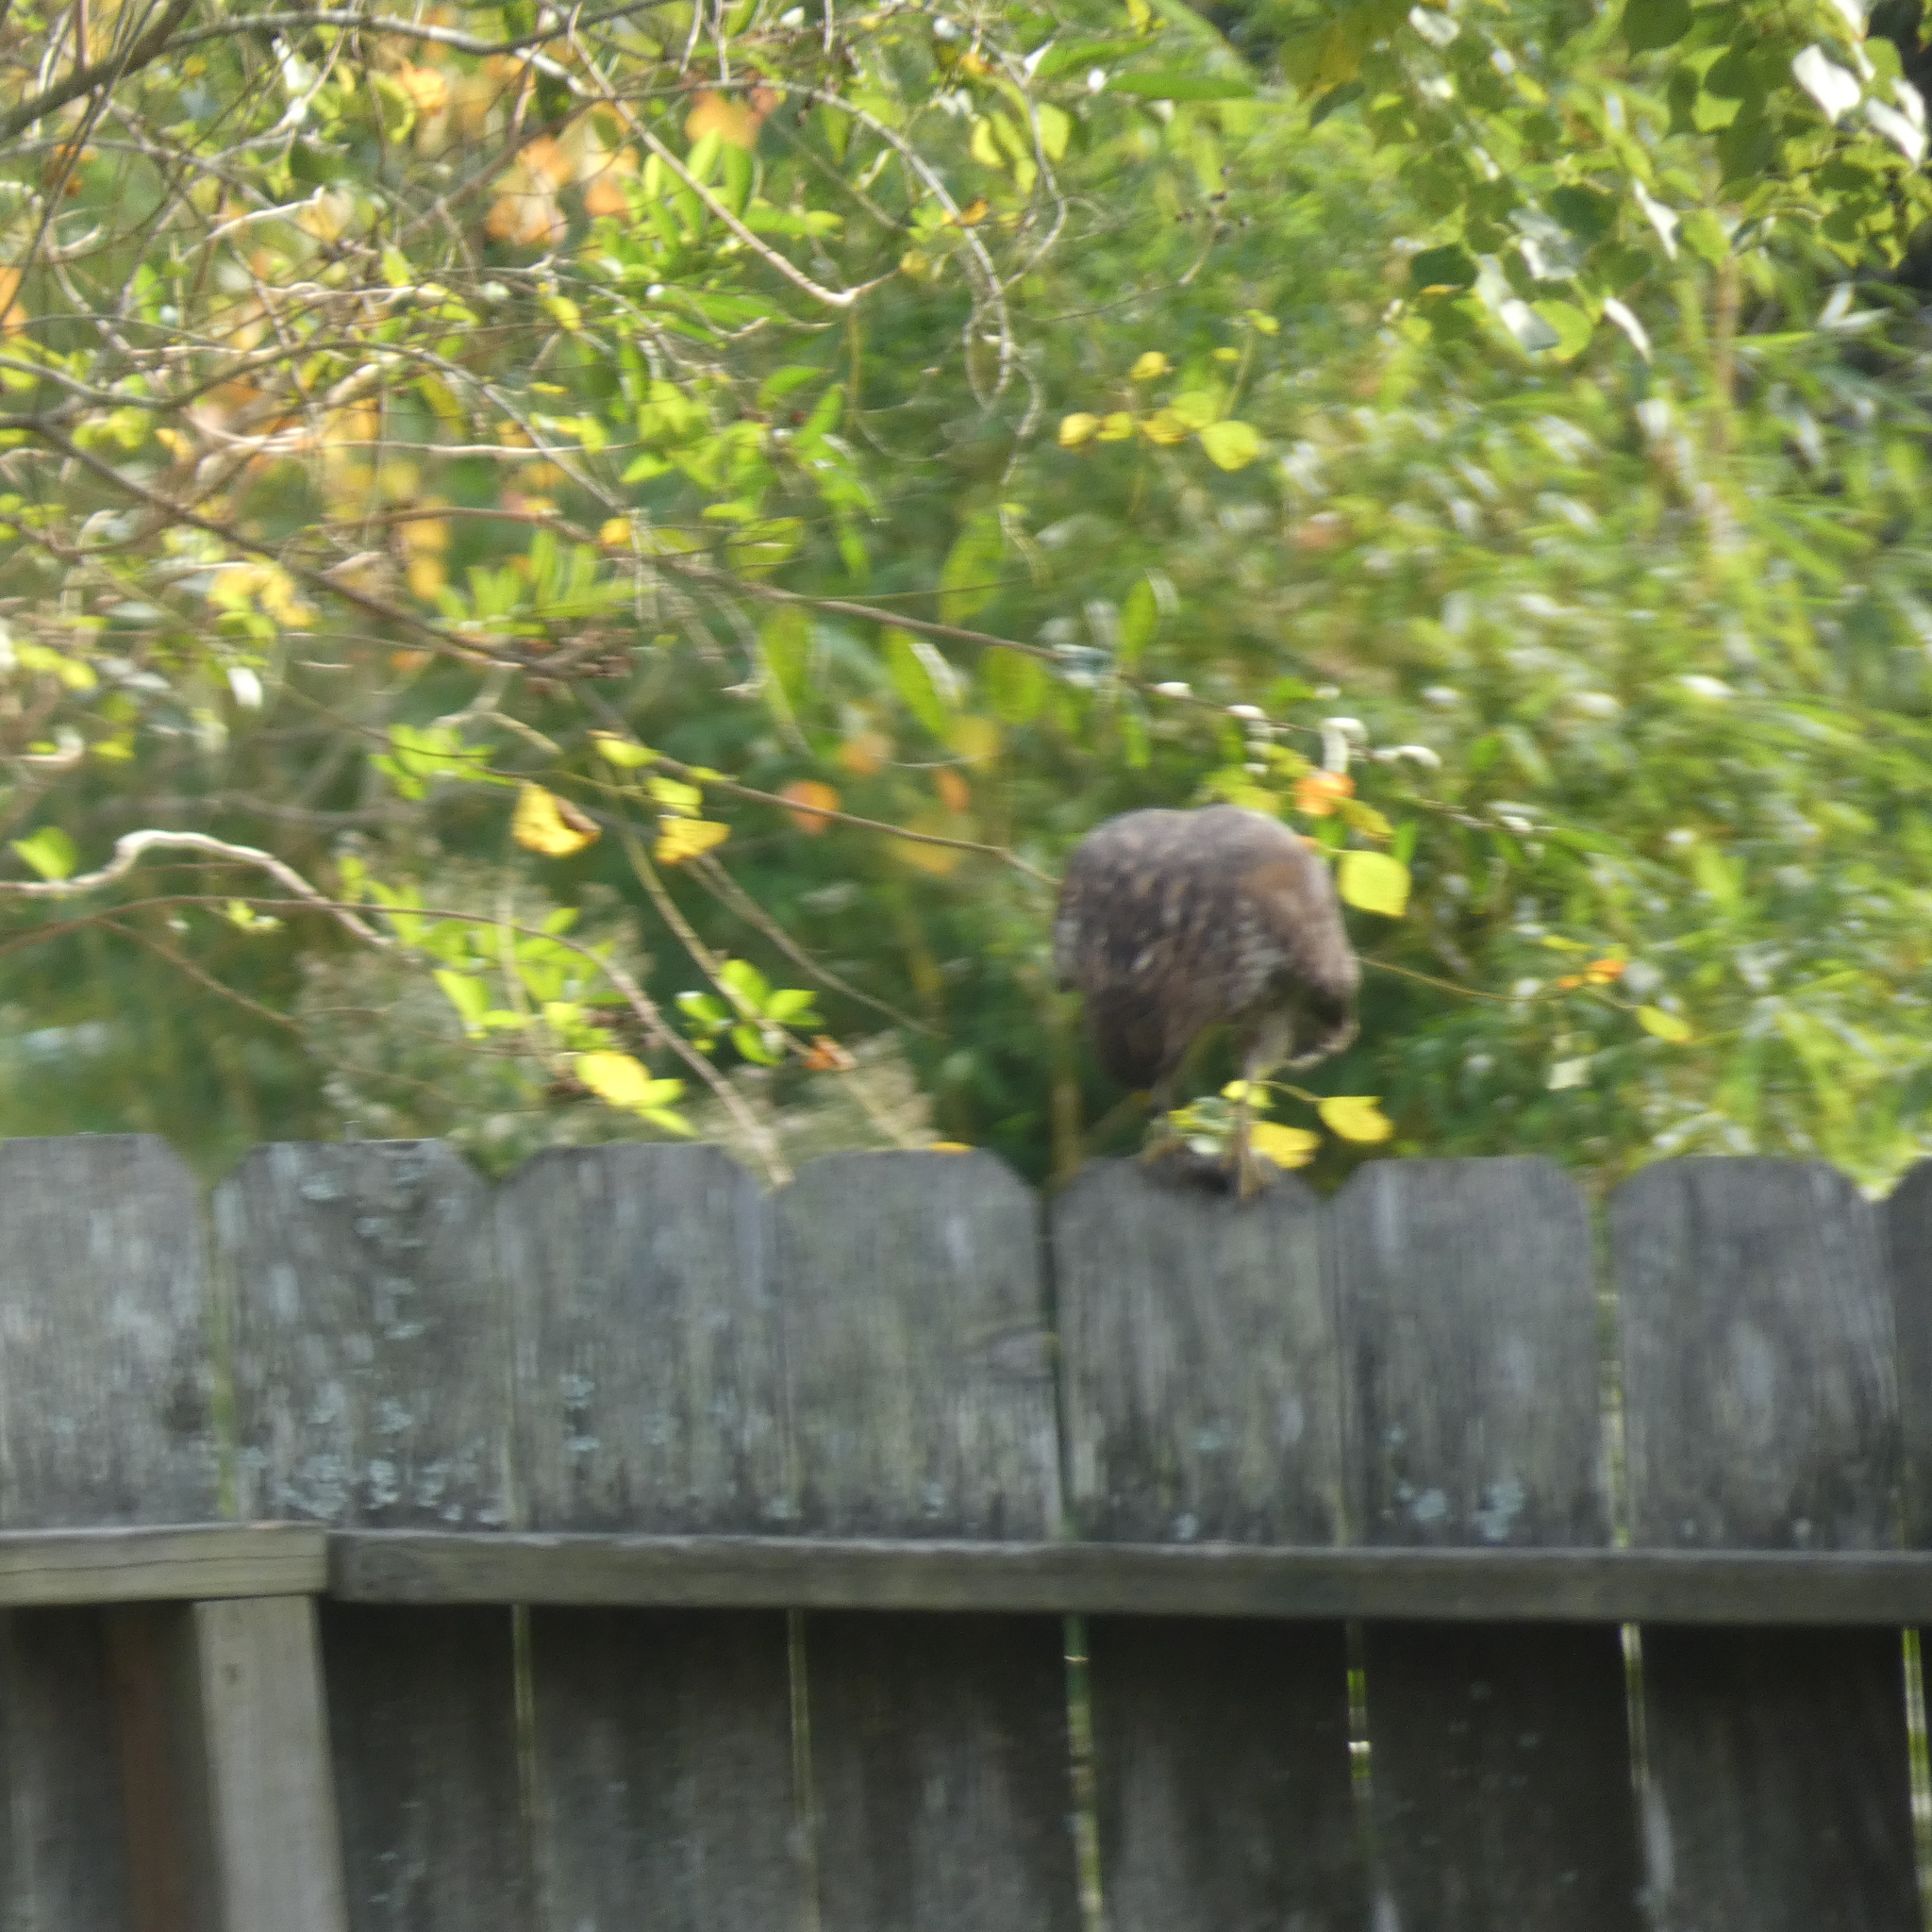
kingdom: Animalia
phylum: Chordata
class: Aves
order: Accipitriformes
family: Accipitridae
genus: Buteo
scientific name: Buteo lineatus
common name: Red-shouldered hawk
